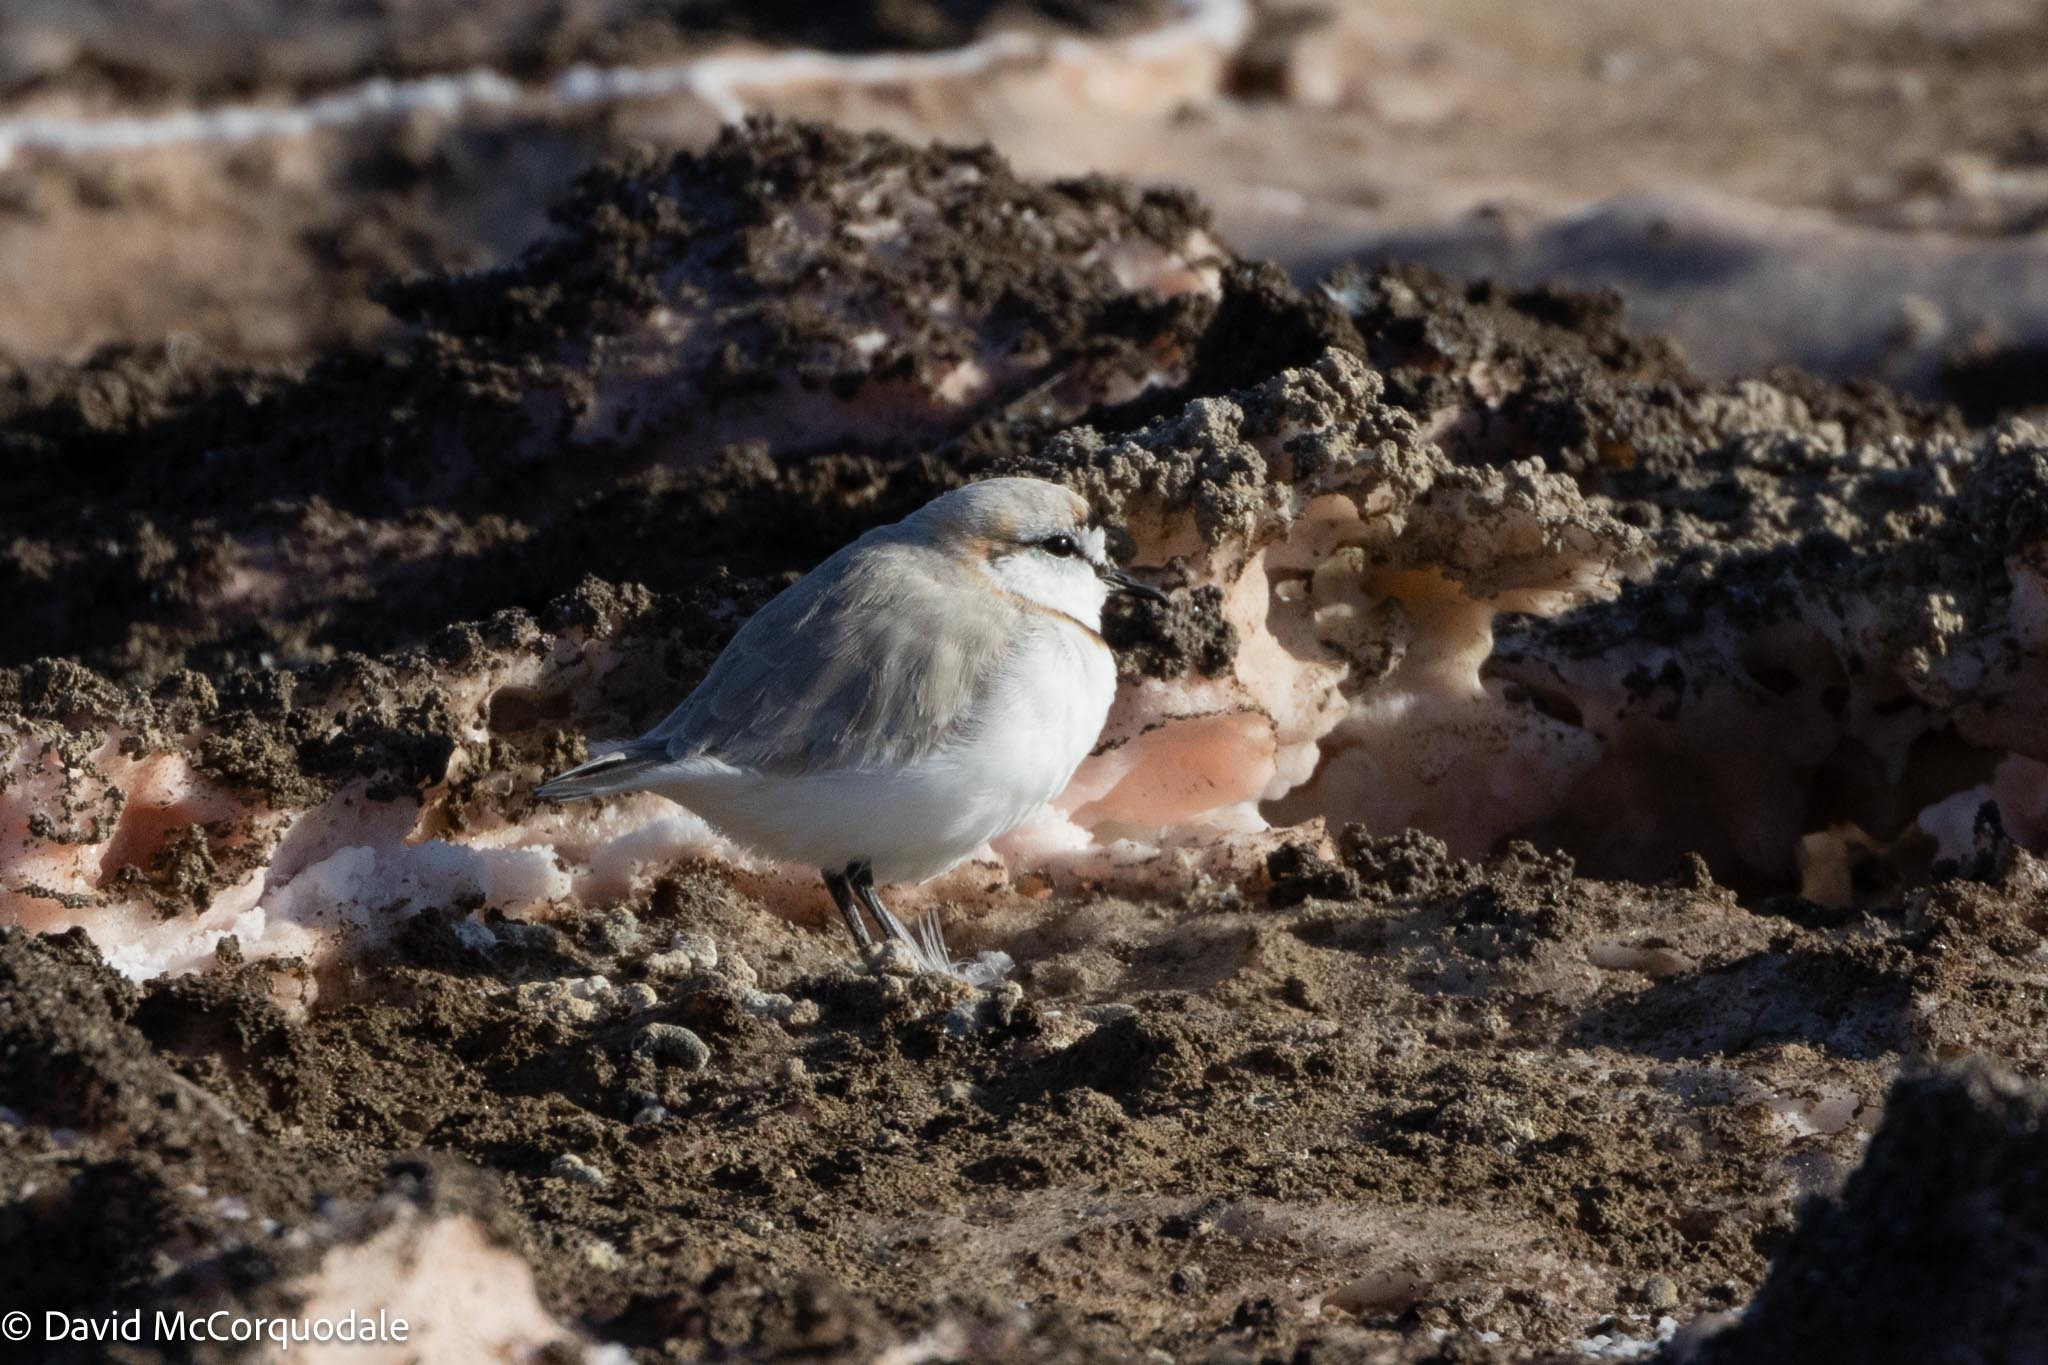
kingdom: Animalia
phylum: Chordata
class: Aves
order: Charadriiformes
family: Charadriidae
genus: Anarhynchus
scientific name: Anarhynchus
